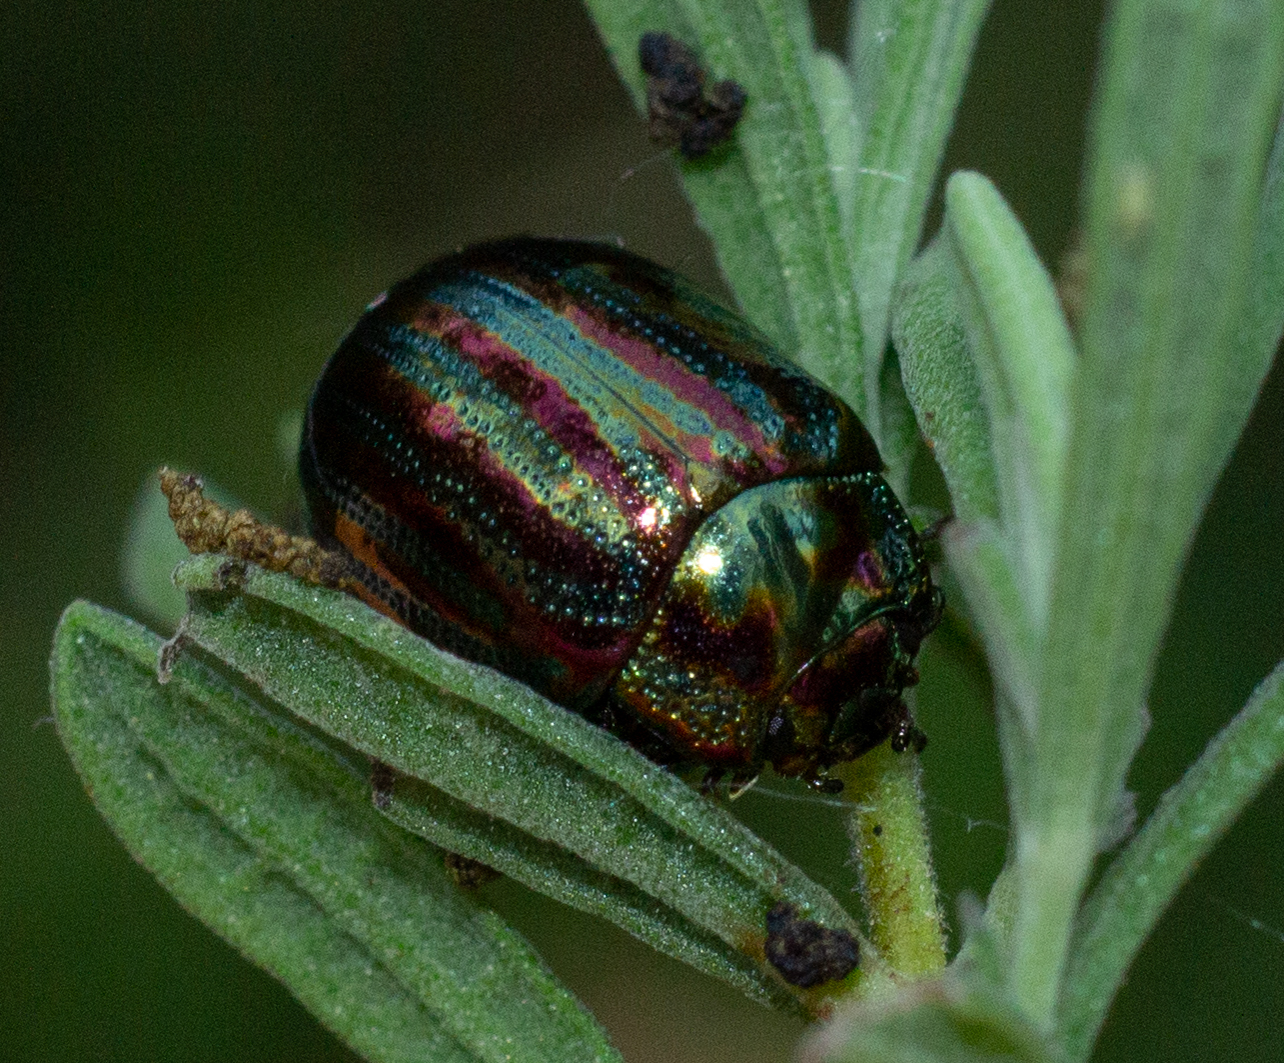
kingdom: Animalia
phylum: Arthropoda
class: Insecta
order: Coleoptera
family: Chrysomelidae
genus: Chrysolina
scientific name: Chrysolina americana
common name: Rosemary beetle
